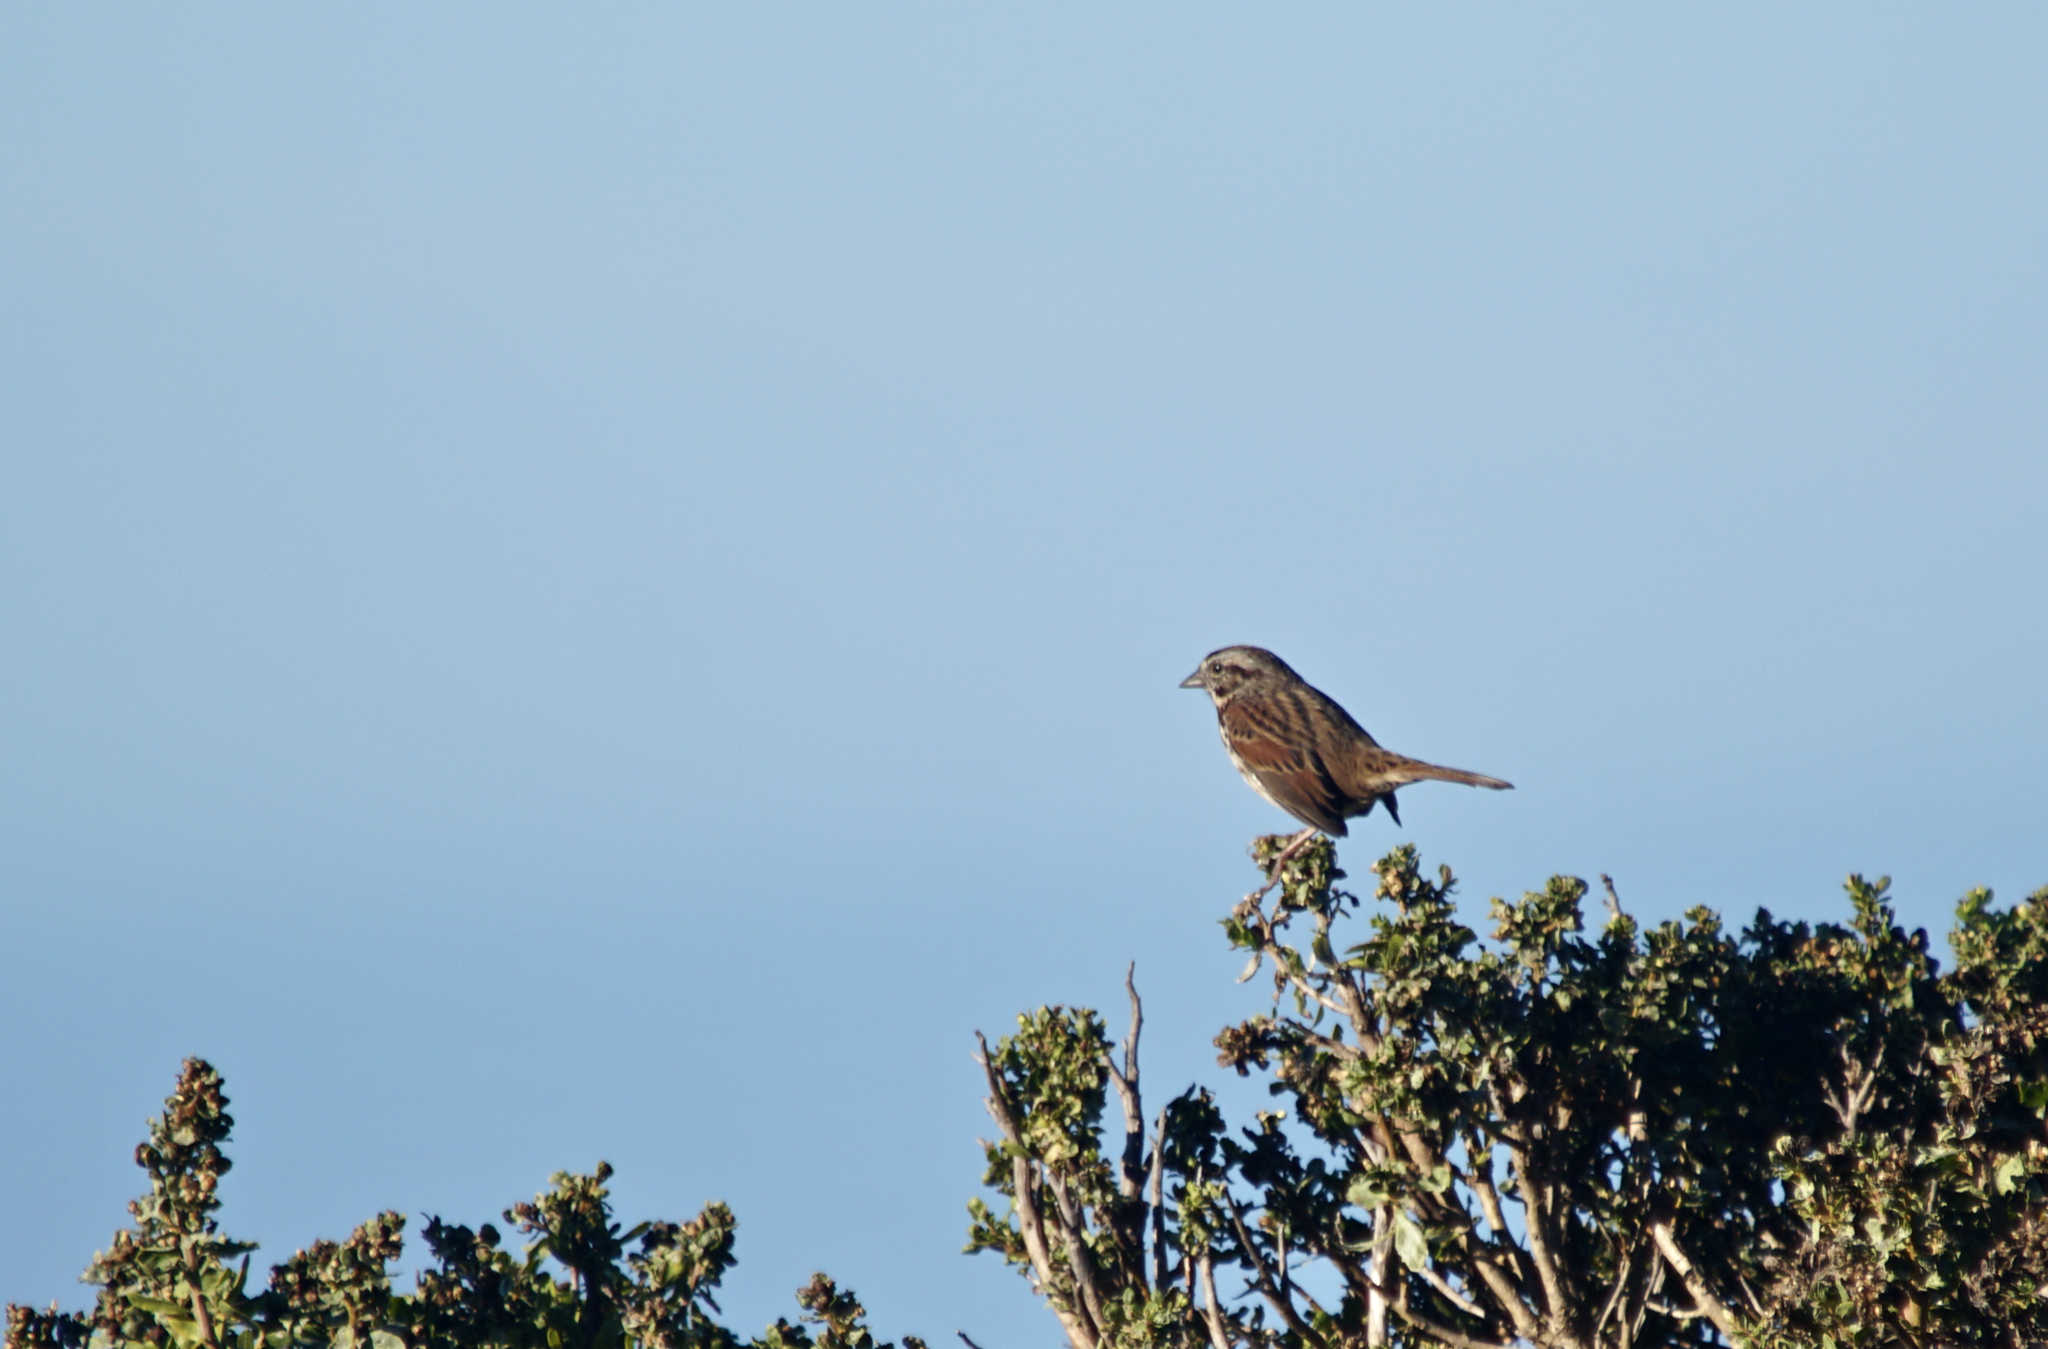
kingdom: Animalia
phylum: Chordata
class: Aves
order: Passeriformes
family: Passerellidae
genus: Melospiza
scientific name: Melospiza melodia
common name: Song sparrow
